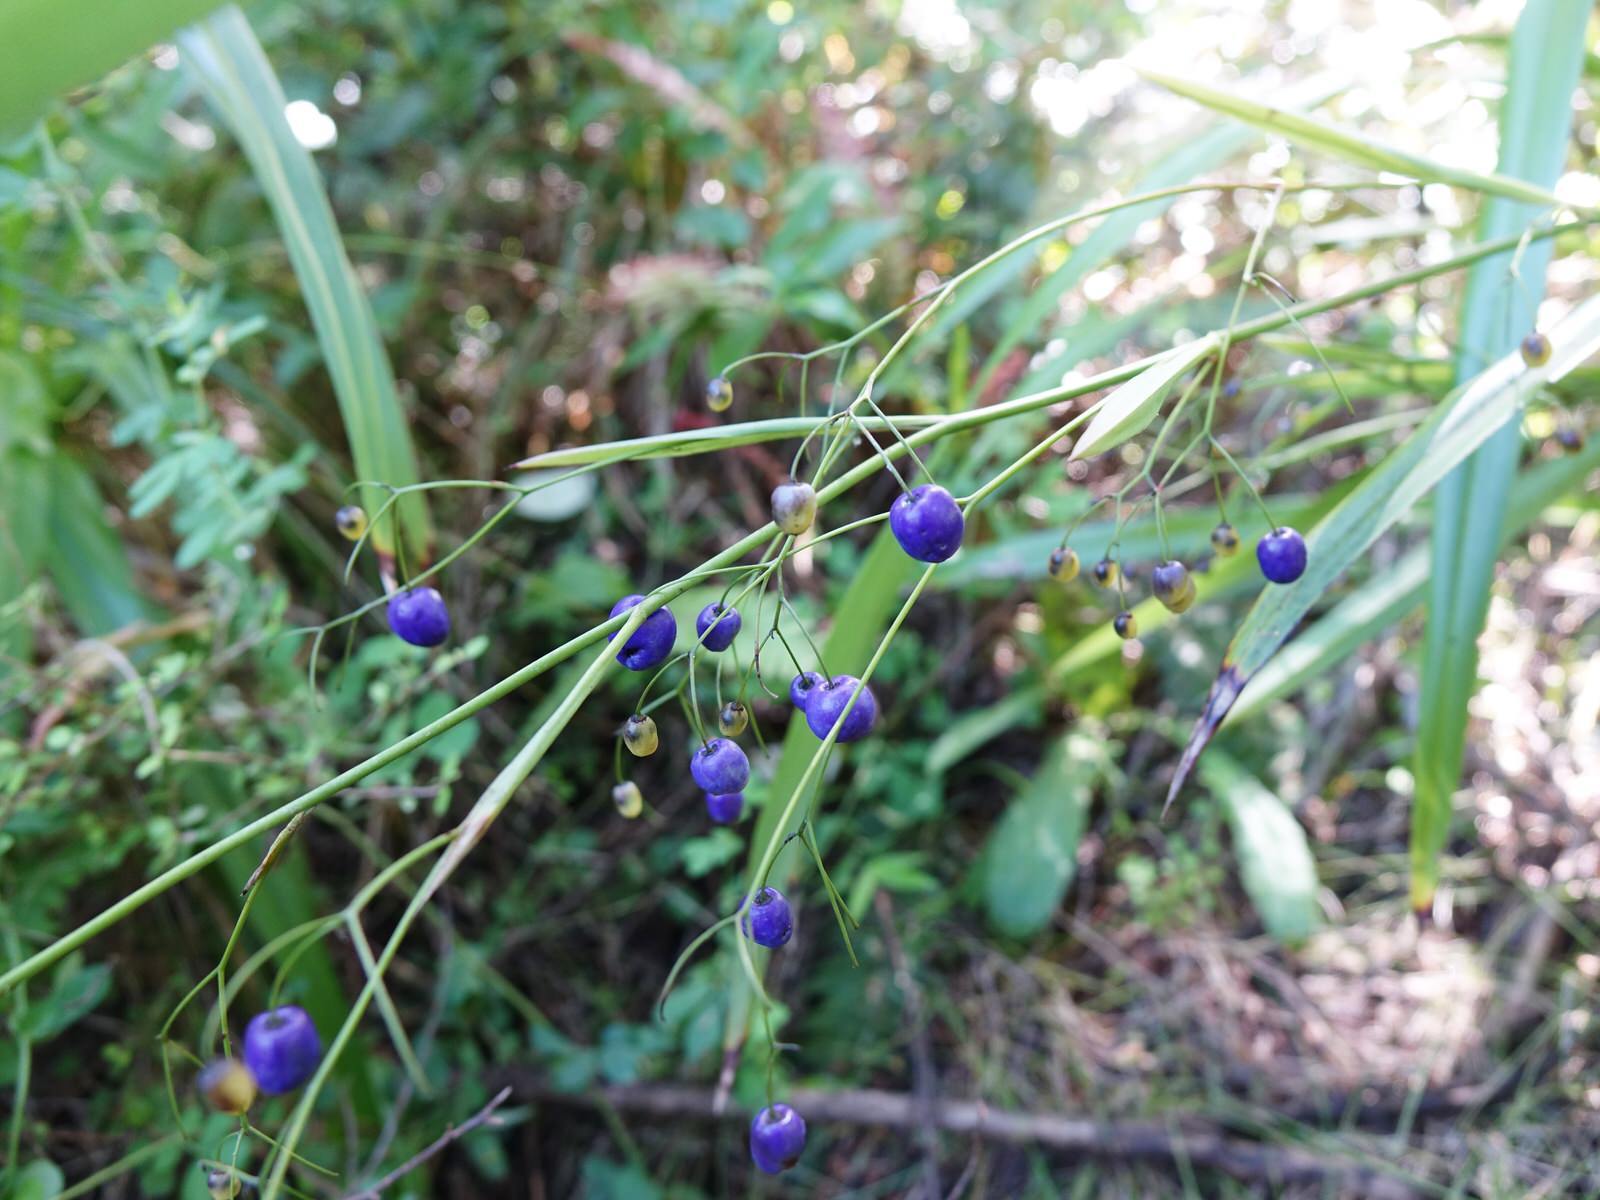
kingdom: Plantae
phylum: Tracheophyta
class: Liliopsida
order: Asparagales
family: Asphodelaceae
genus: Dianella
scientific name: Dianella nigra
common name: New zealand-blueberry
